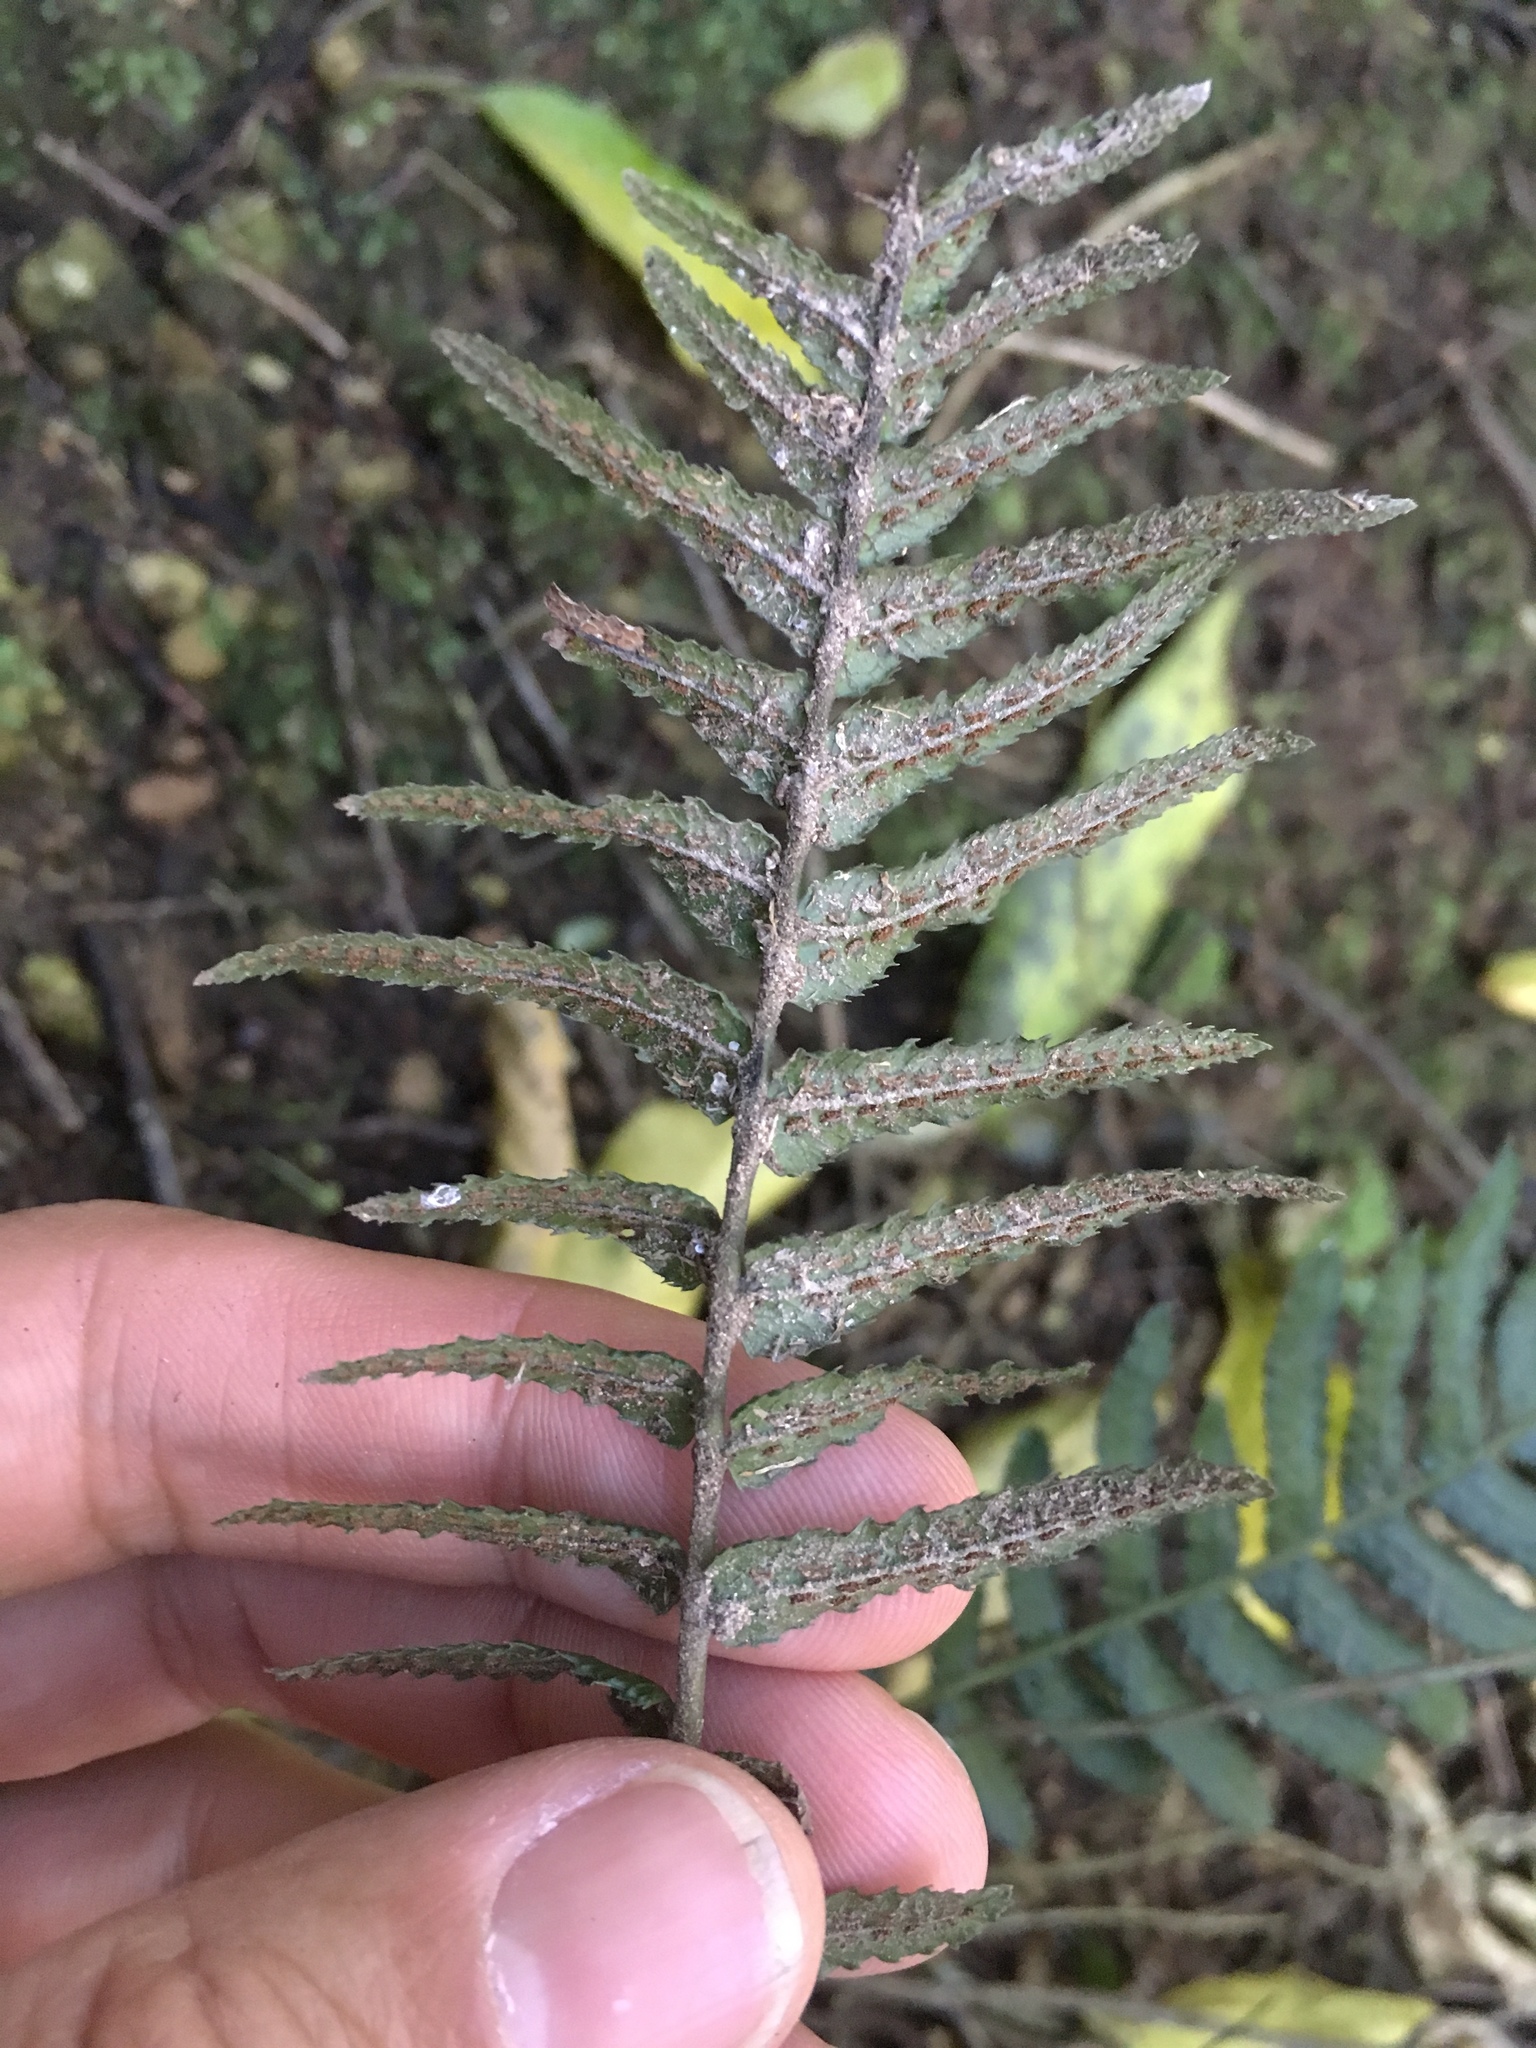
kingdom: Plantae
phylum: Tracheophyta
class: Polypodiopsida
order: Polypodiales
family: Blechnaceae
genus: Doodia
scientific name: Doodia australis
